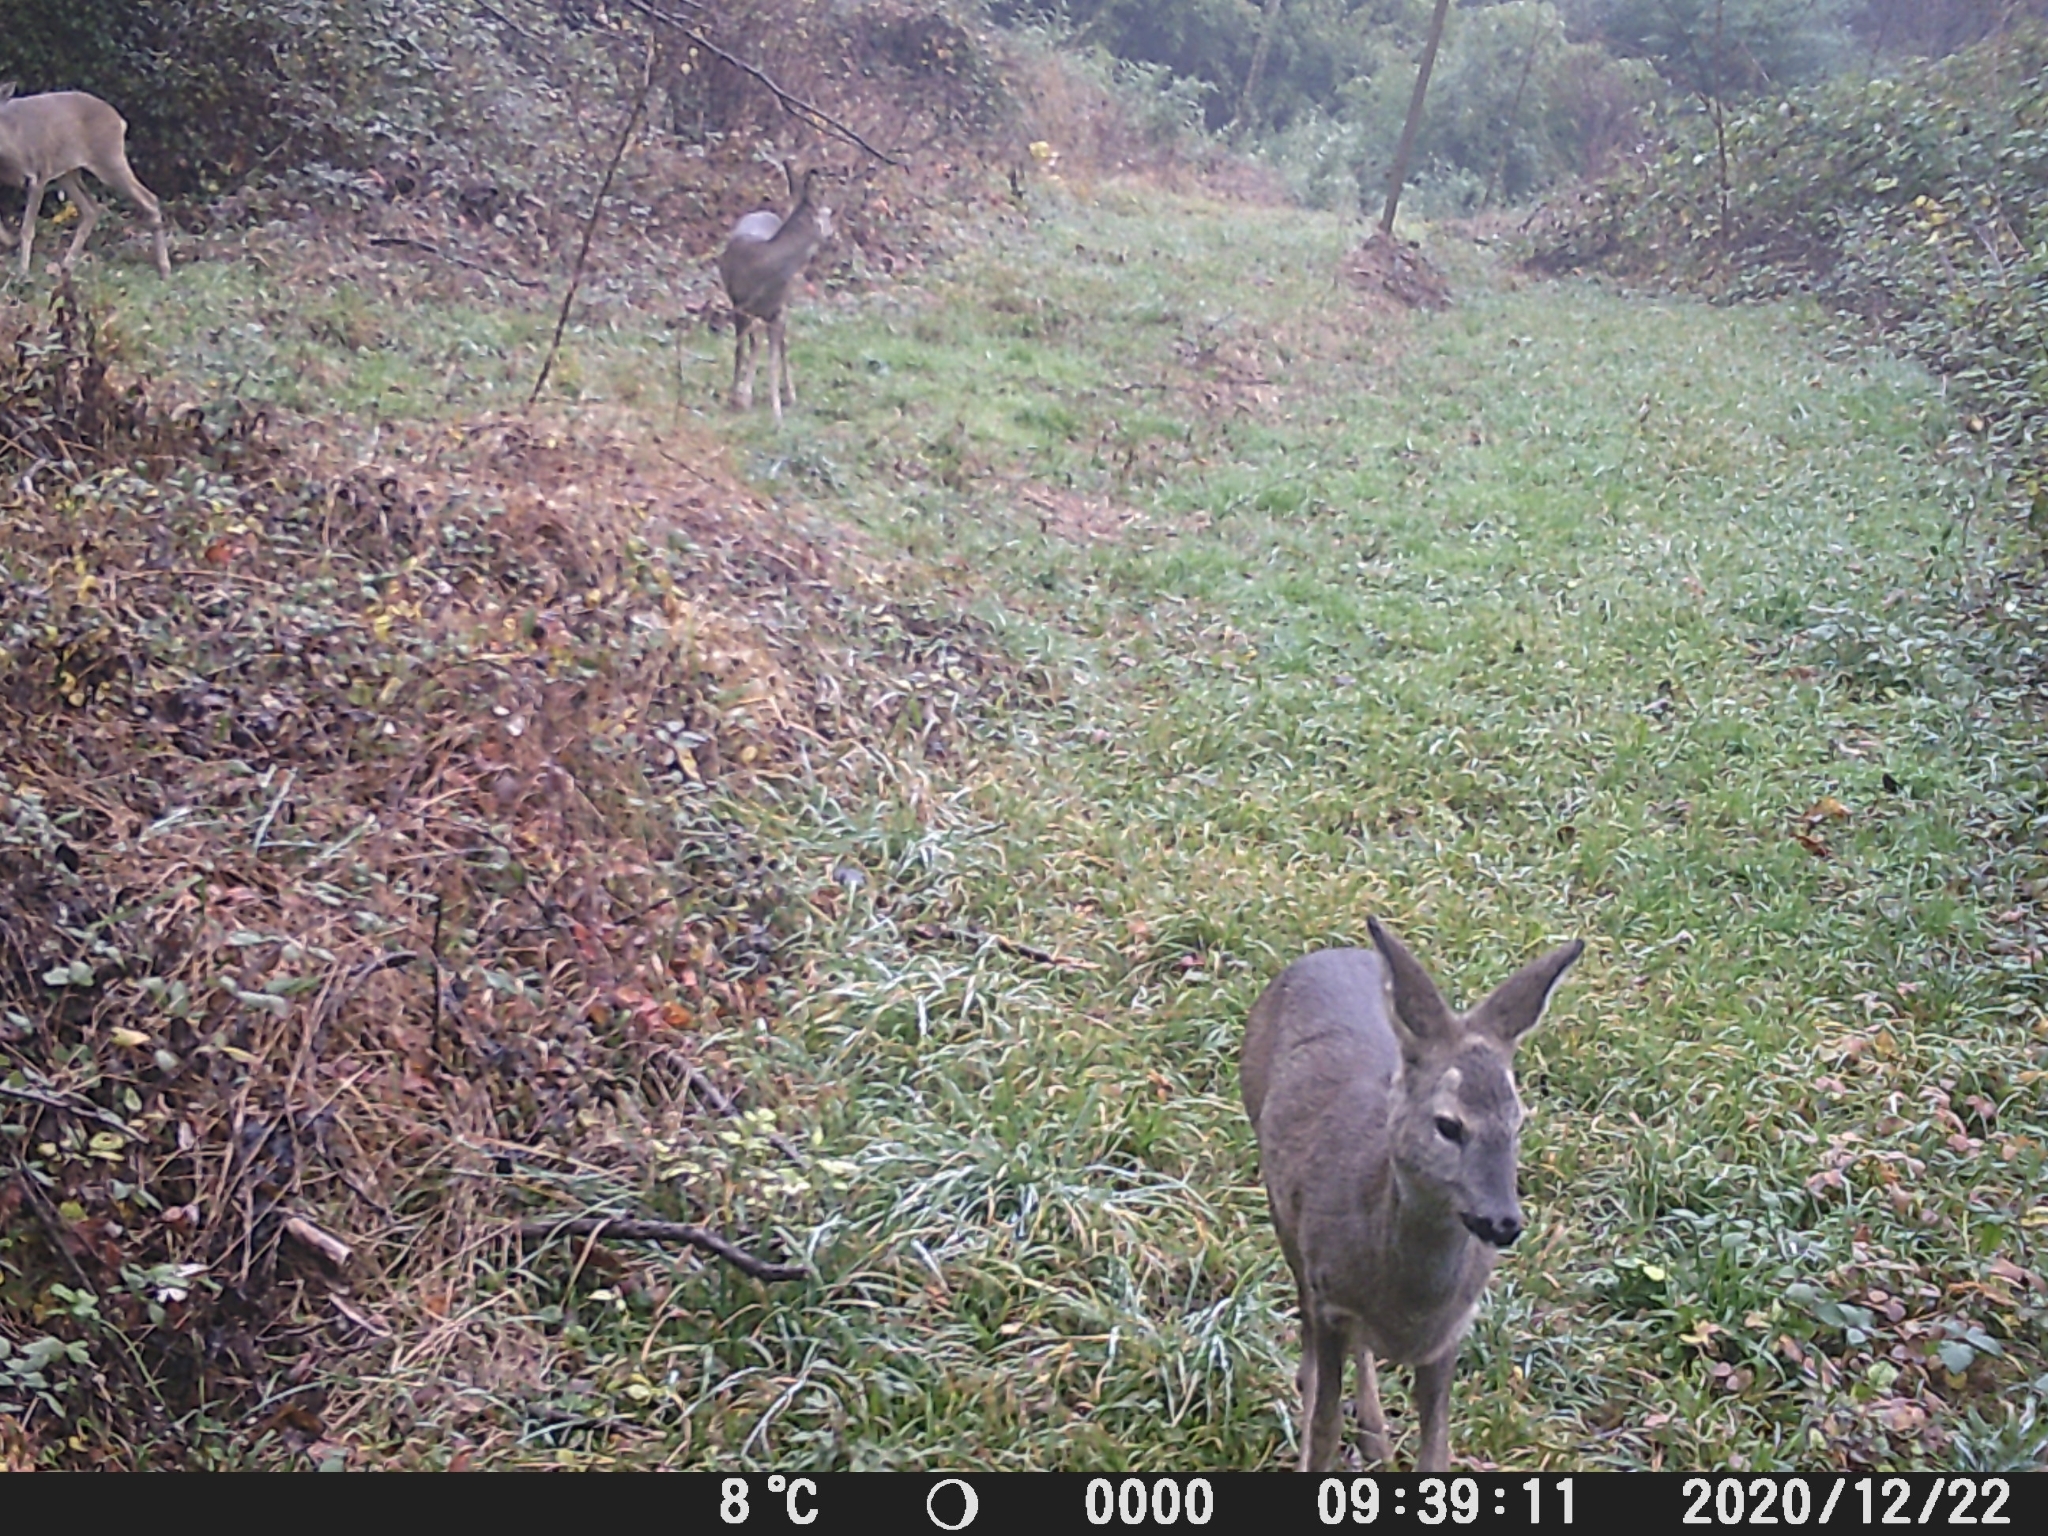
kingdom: Animalia
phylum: Chordata
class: Mammalia
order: Artiodactyla
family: Cervidae
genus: Capreolus
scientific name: Capreolus capreolus
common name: Western roe deer
